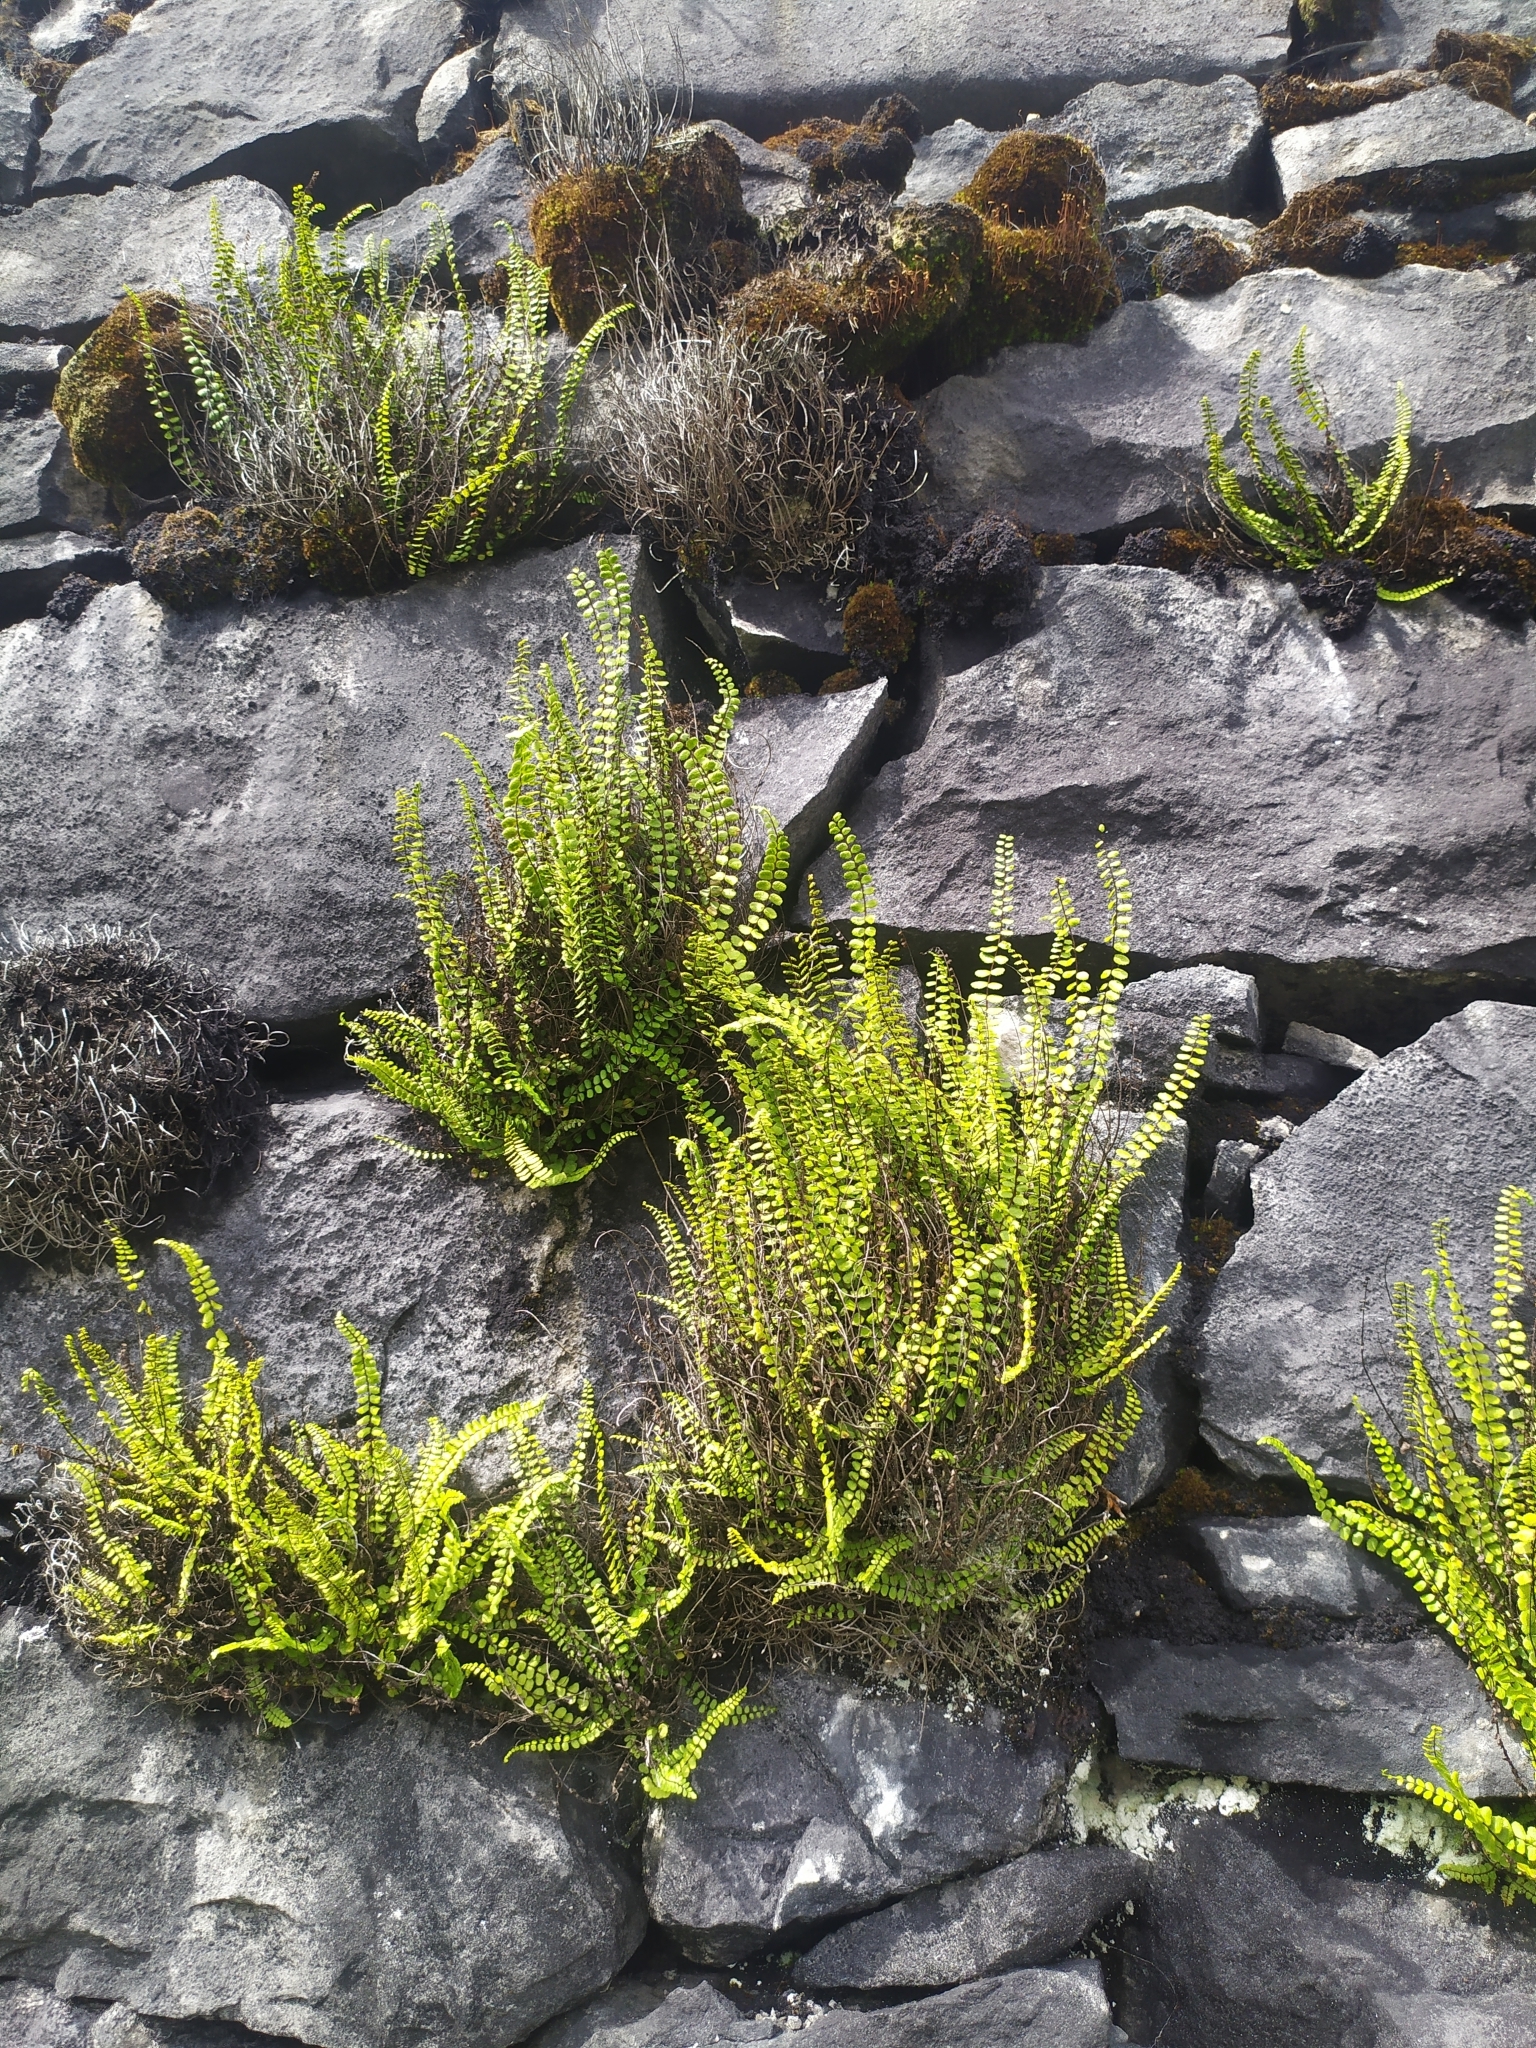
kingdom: Plantae
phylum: Tracheophyta
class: Polypodiopsida
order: Polypodiales
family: Aspleniaceae
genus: Asplenium
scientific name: Asplenium trichomanes
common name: Maidenhair spleenwort
